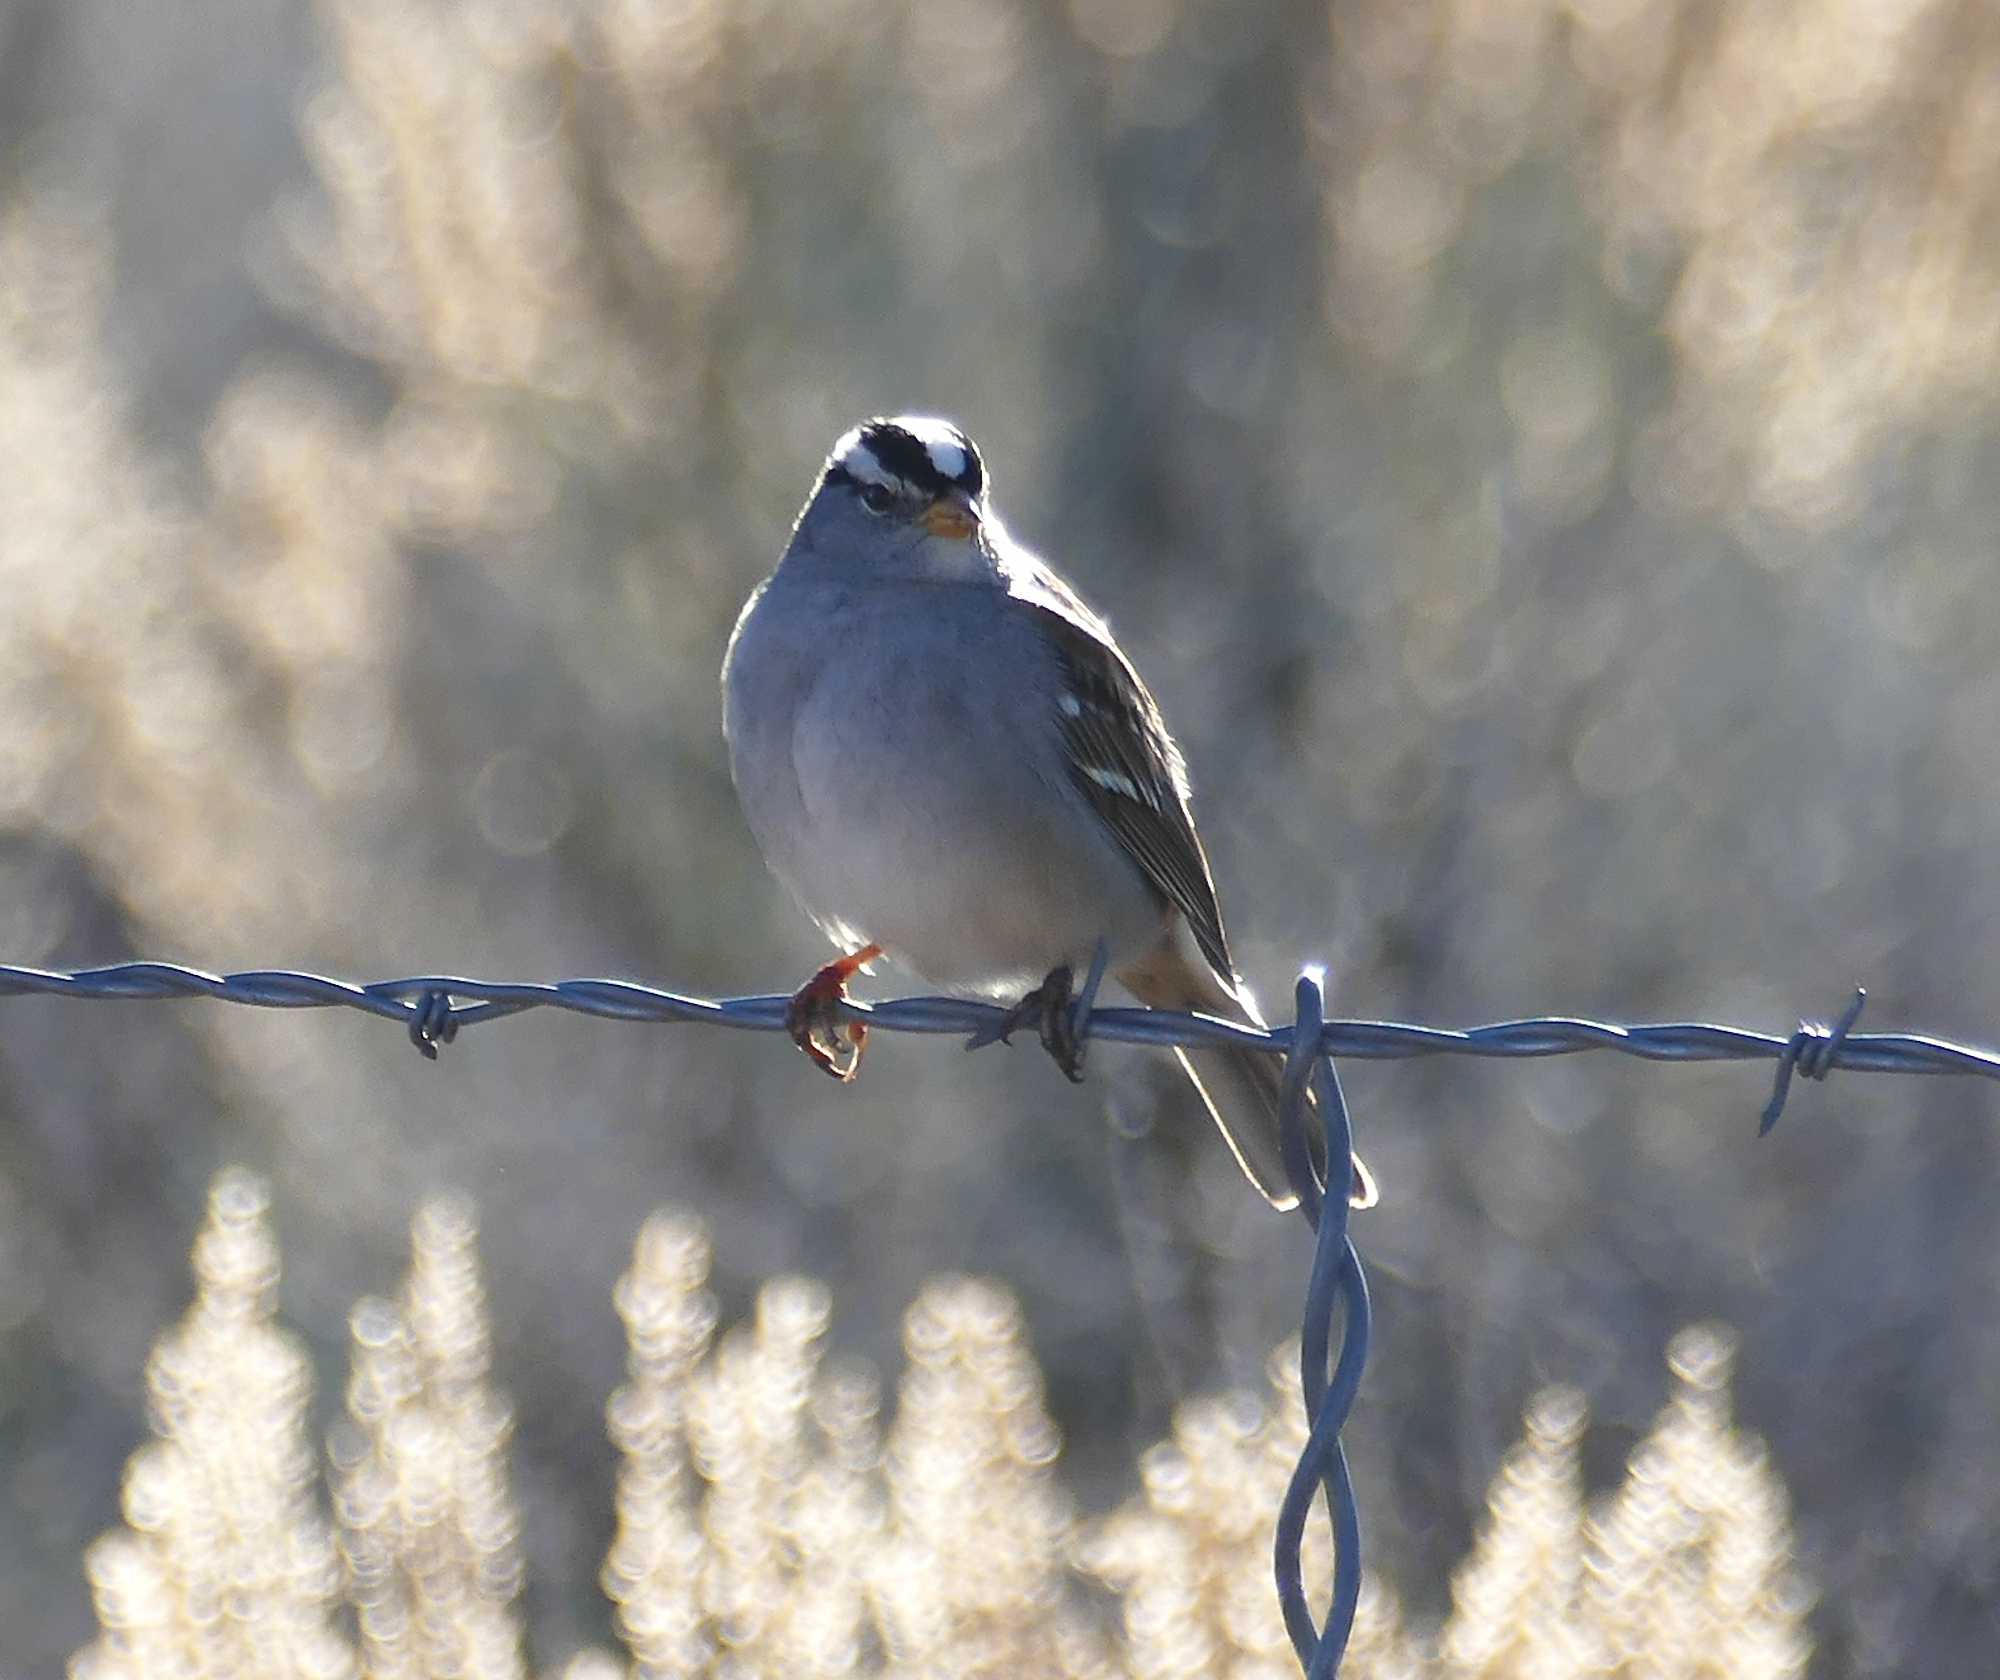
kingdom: Animalia
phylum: Chordata
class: Aves
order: Passeriformes
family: Passerellidae
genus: Zonotrichia
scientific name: Zonotrichia leucophrys
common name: White-crowned sparrow
